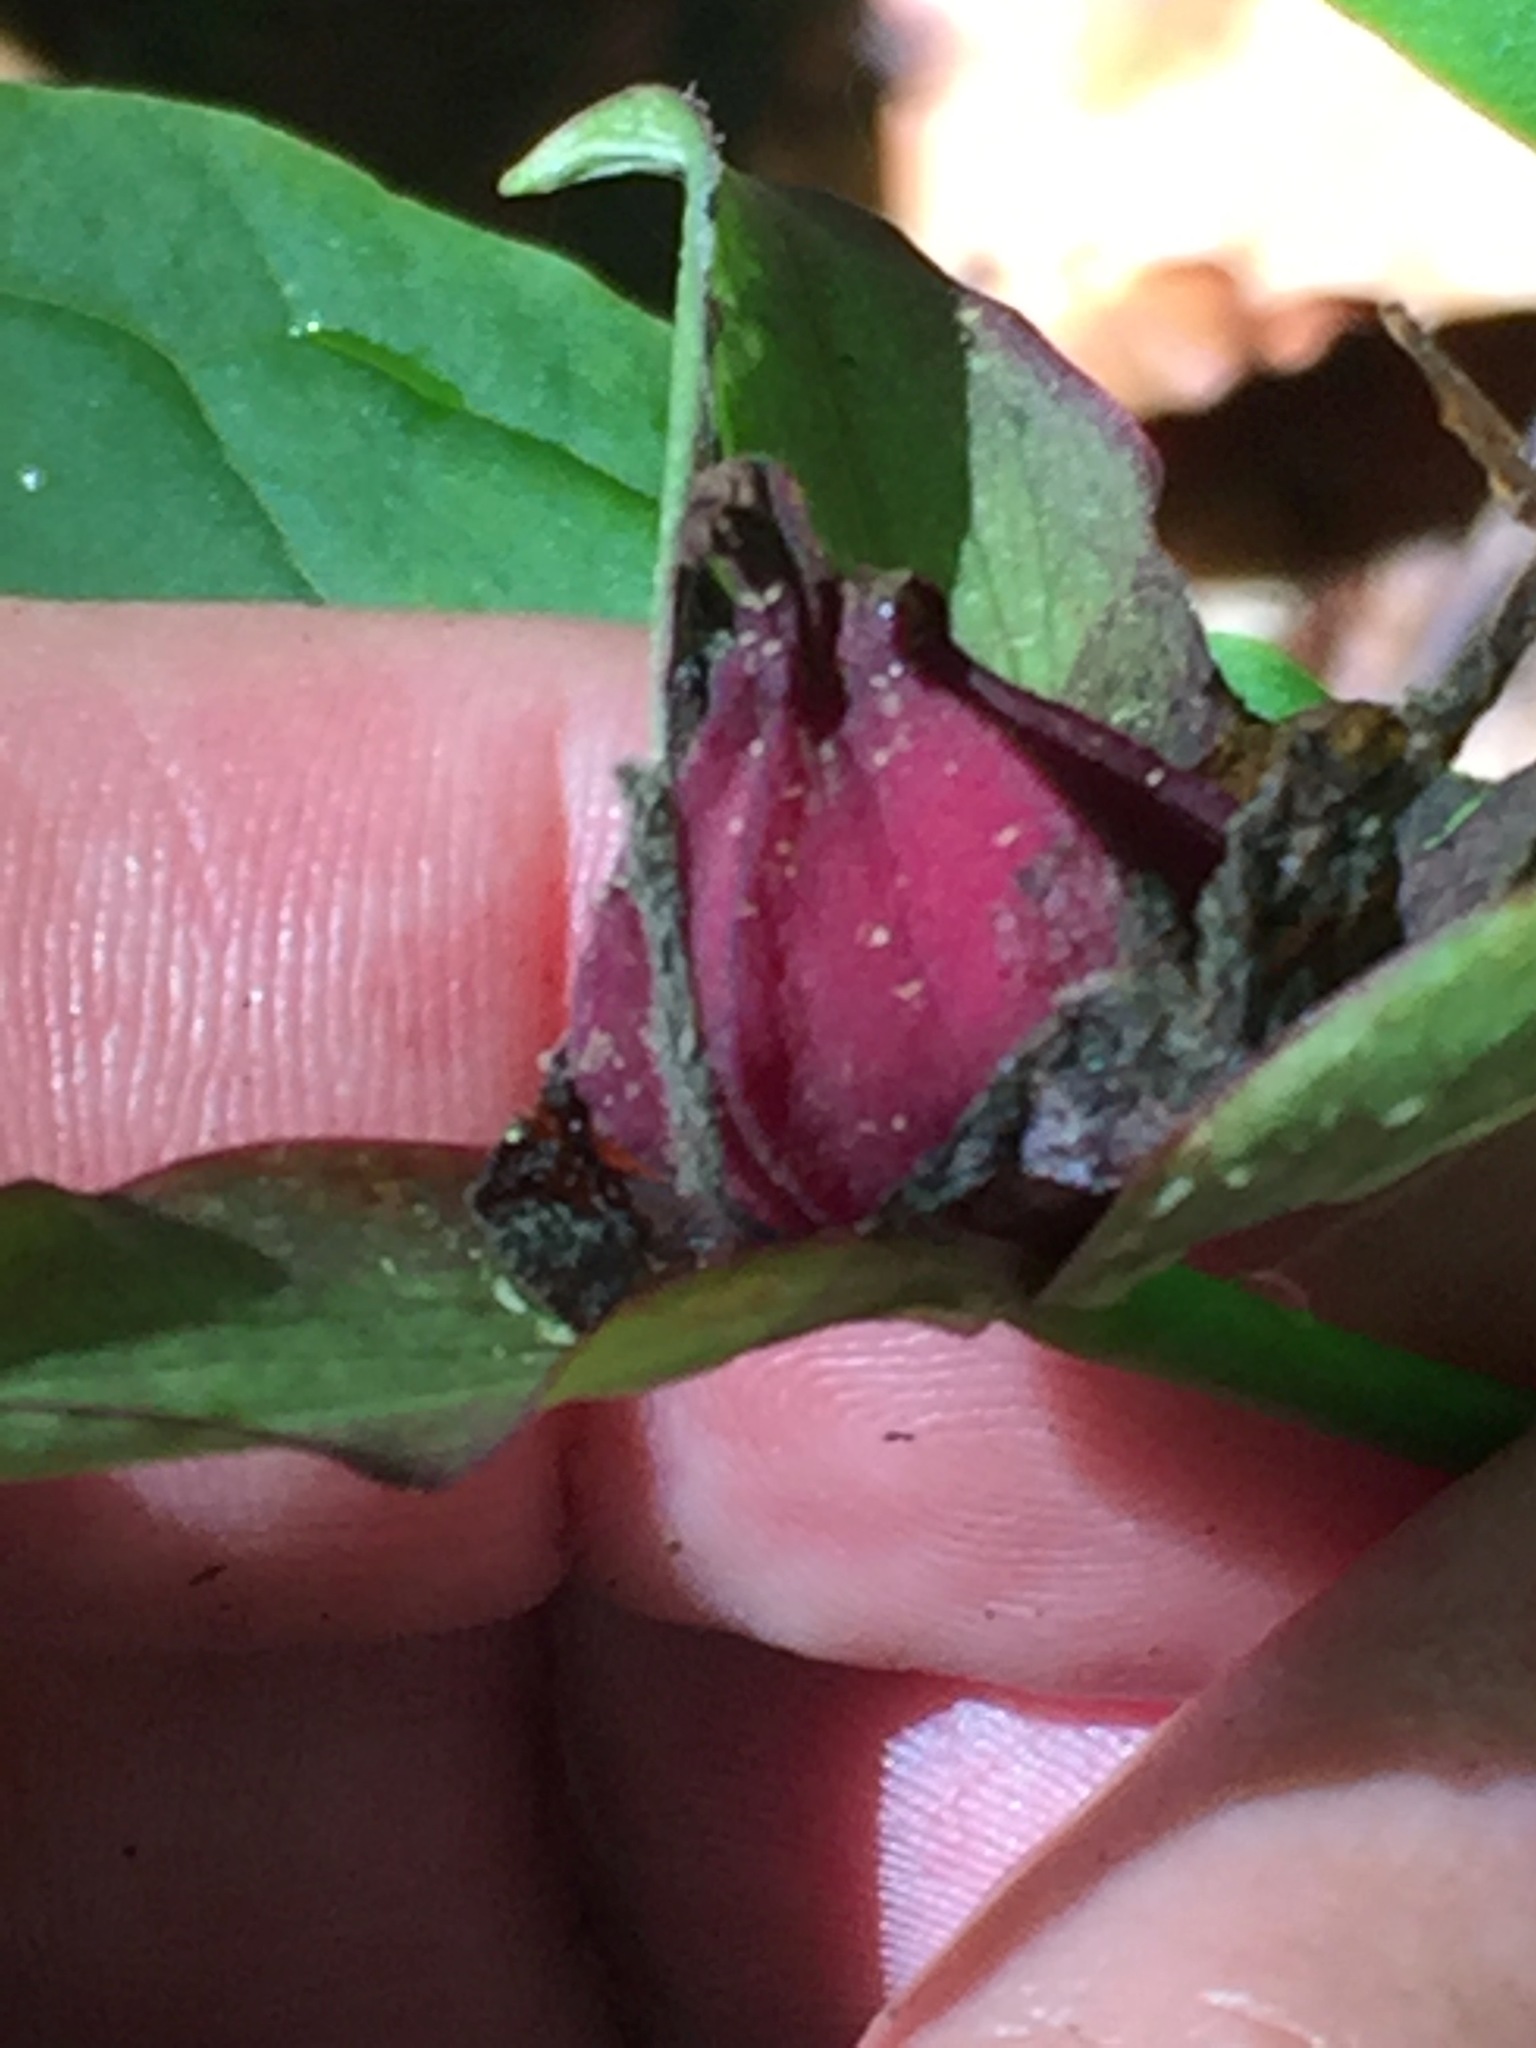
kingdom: Plantae
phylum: Tracheophyta
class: Liliopsida
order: Liliales
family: Melanthiaceae
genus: Trillium
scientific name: Trillium erectum
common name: Purple trillium
